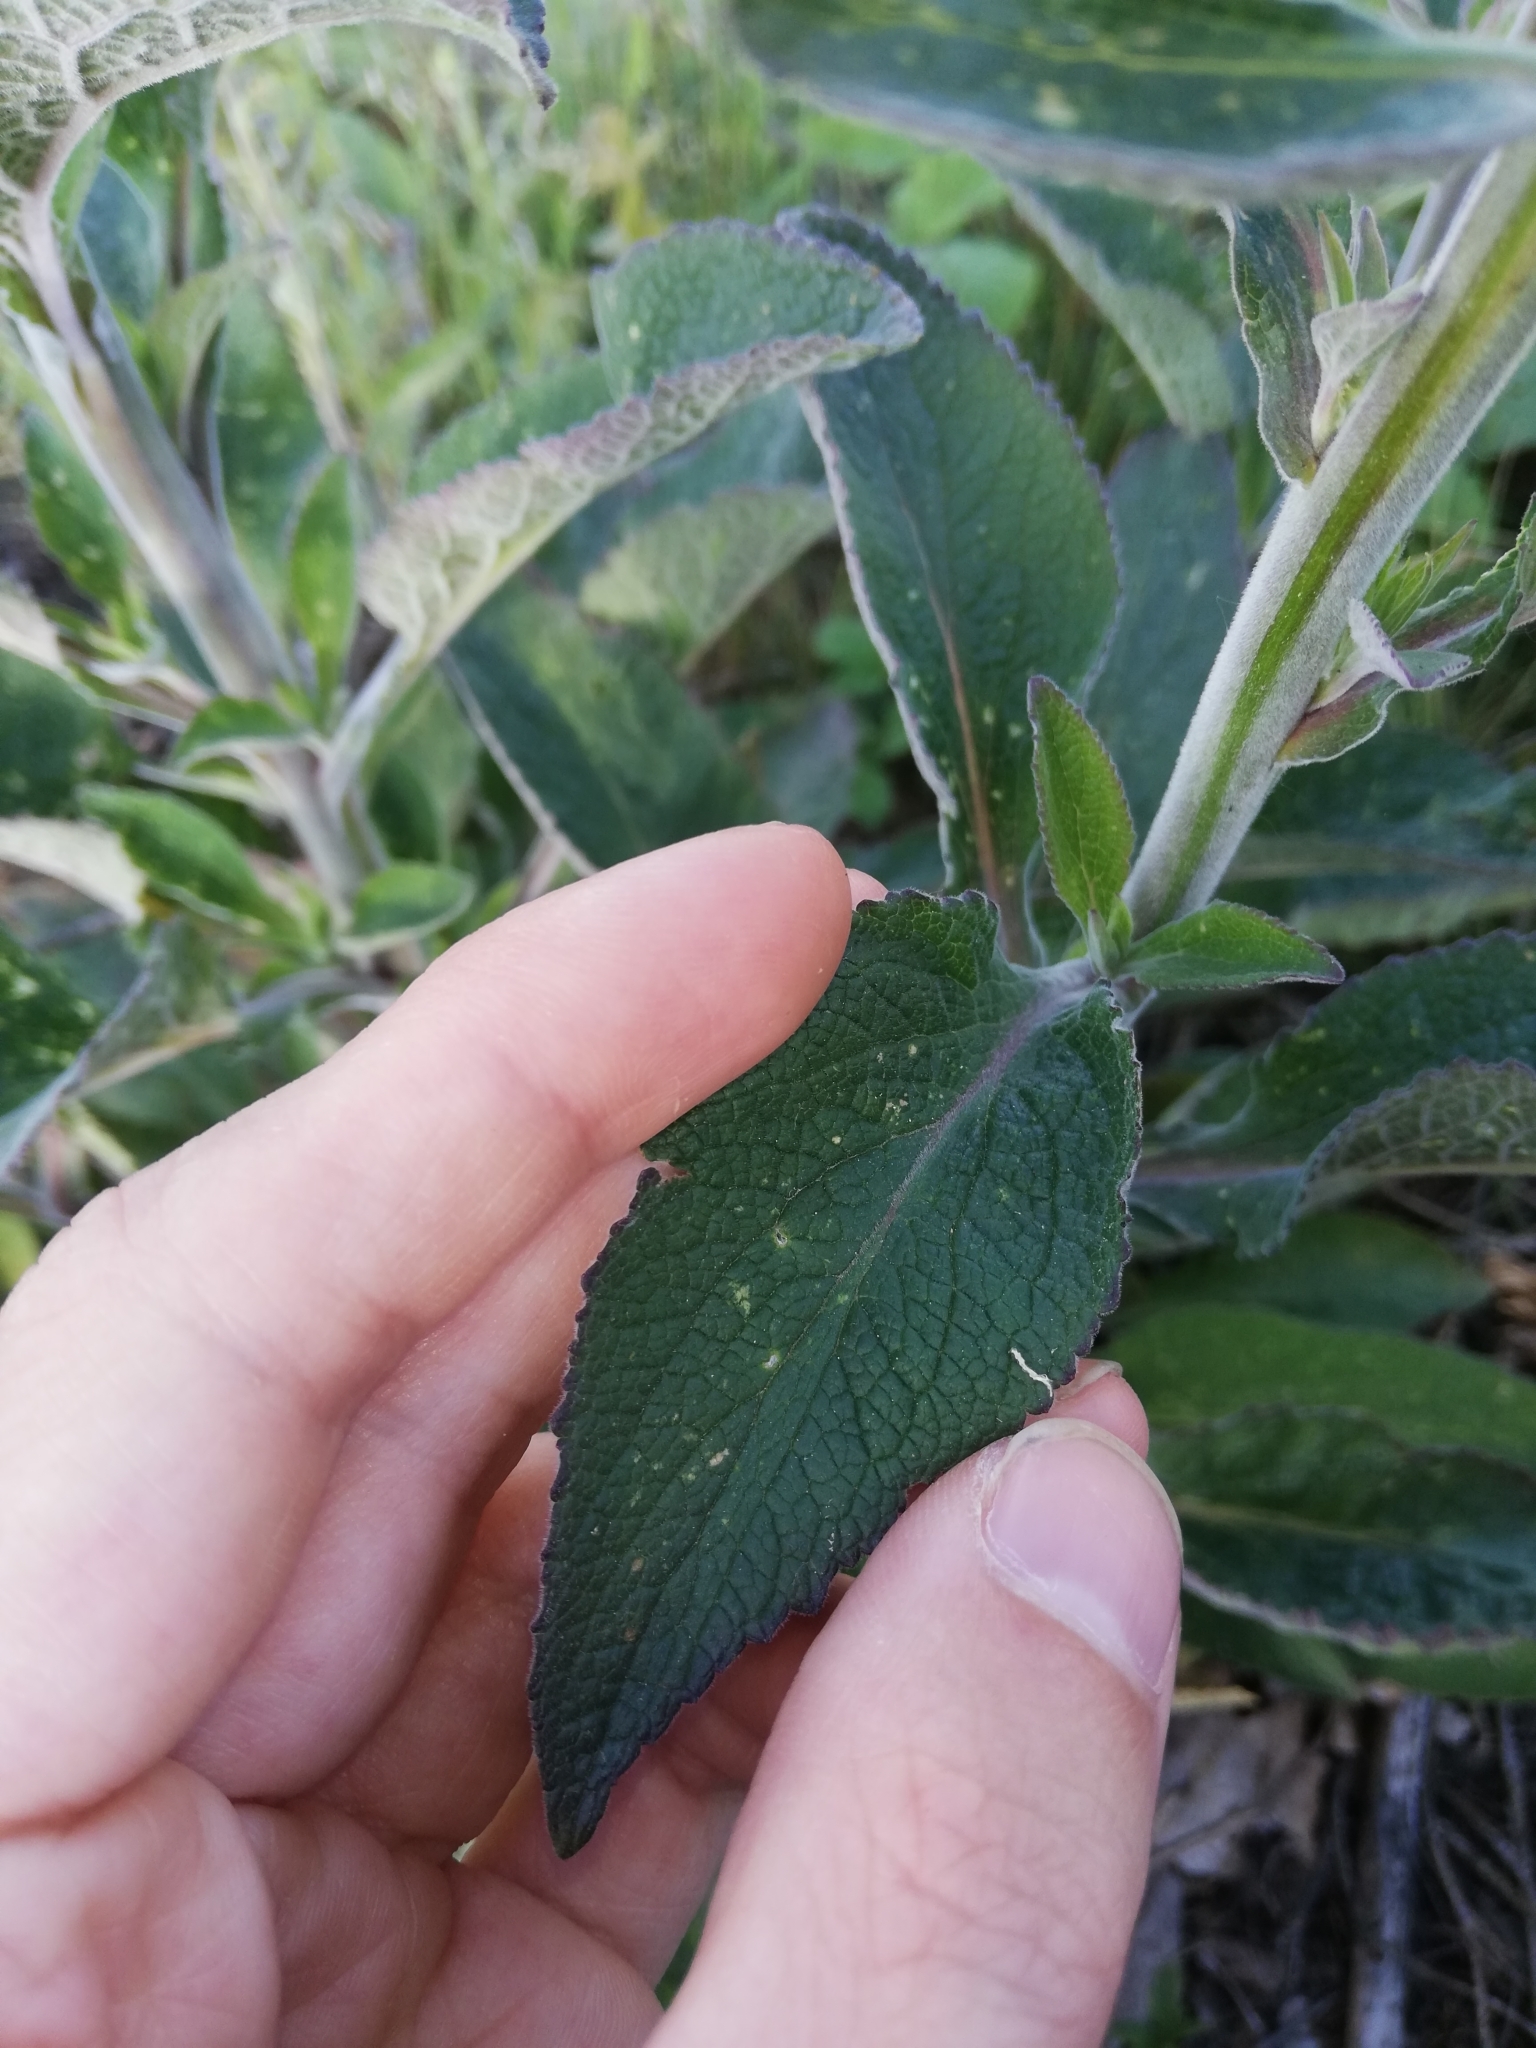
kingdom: Plantae
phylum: Tracheophyta
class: Magnoliopsida
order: Lamiales
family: Plantaginaceae
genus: Digitalis
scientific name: Digitalis purpurea
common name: Foxglove
